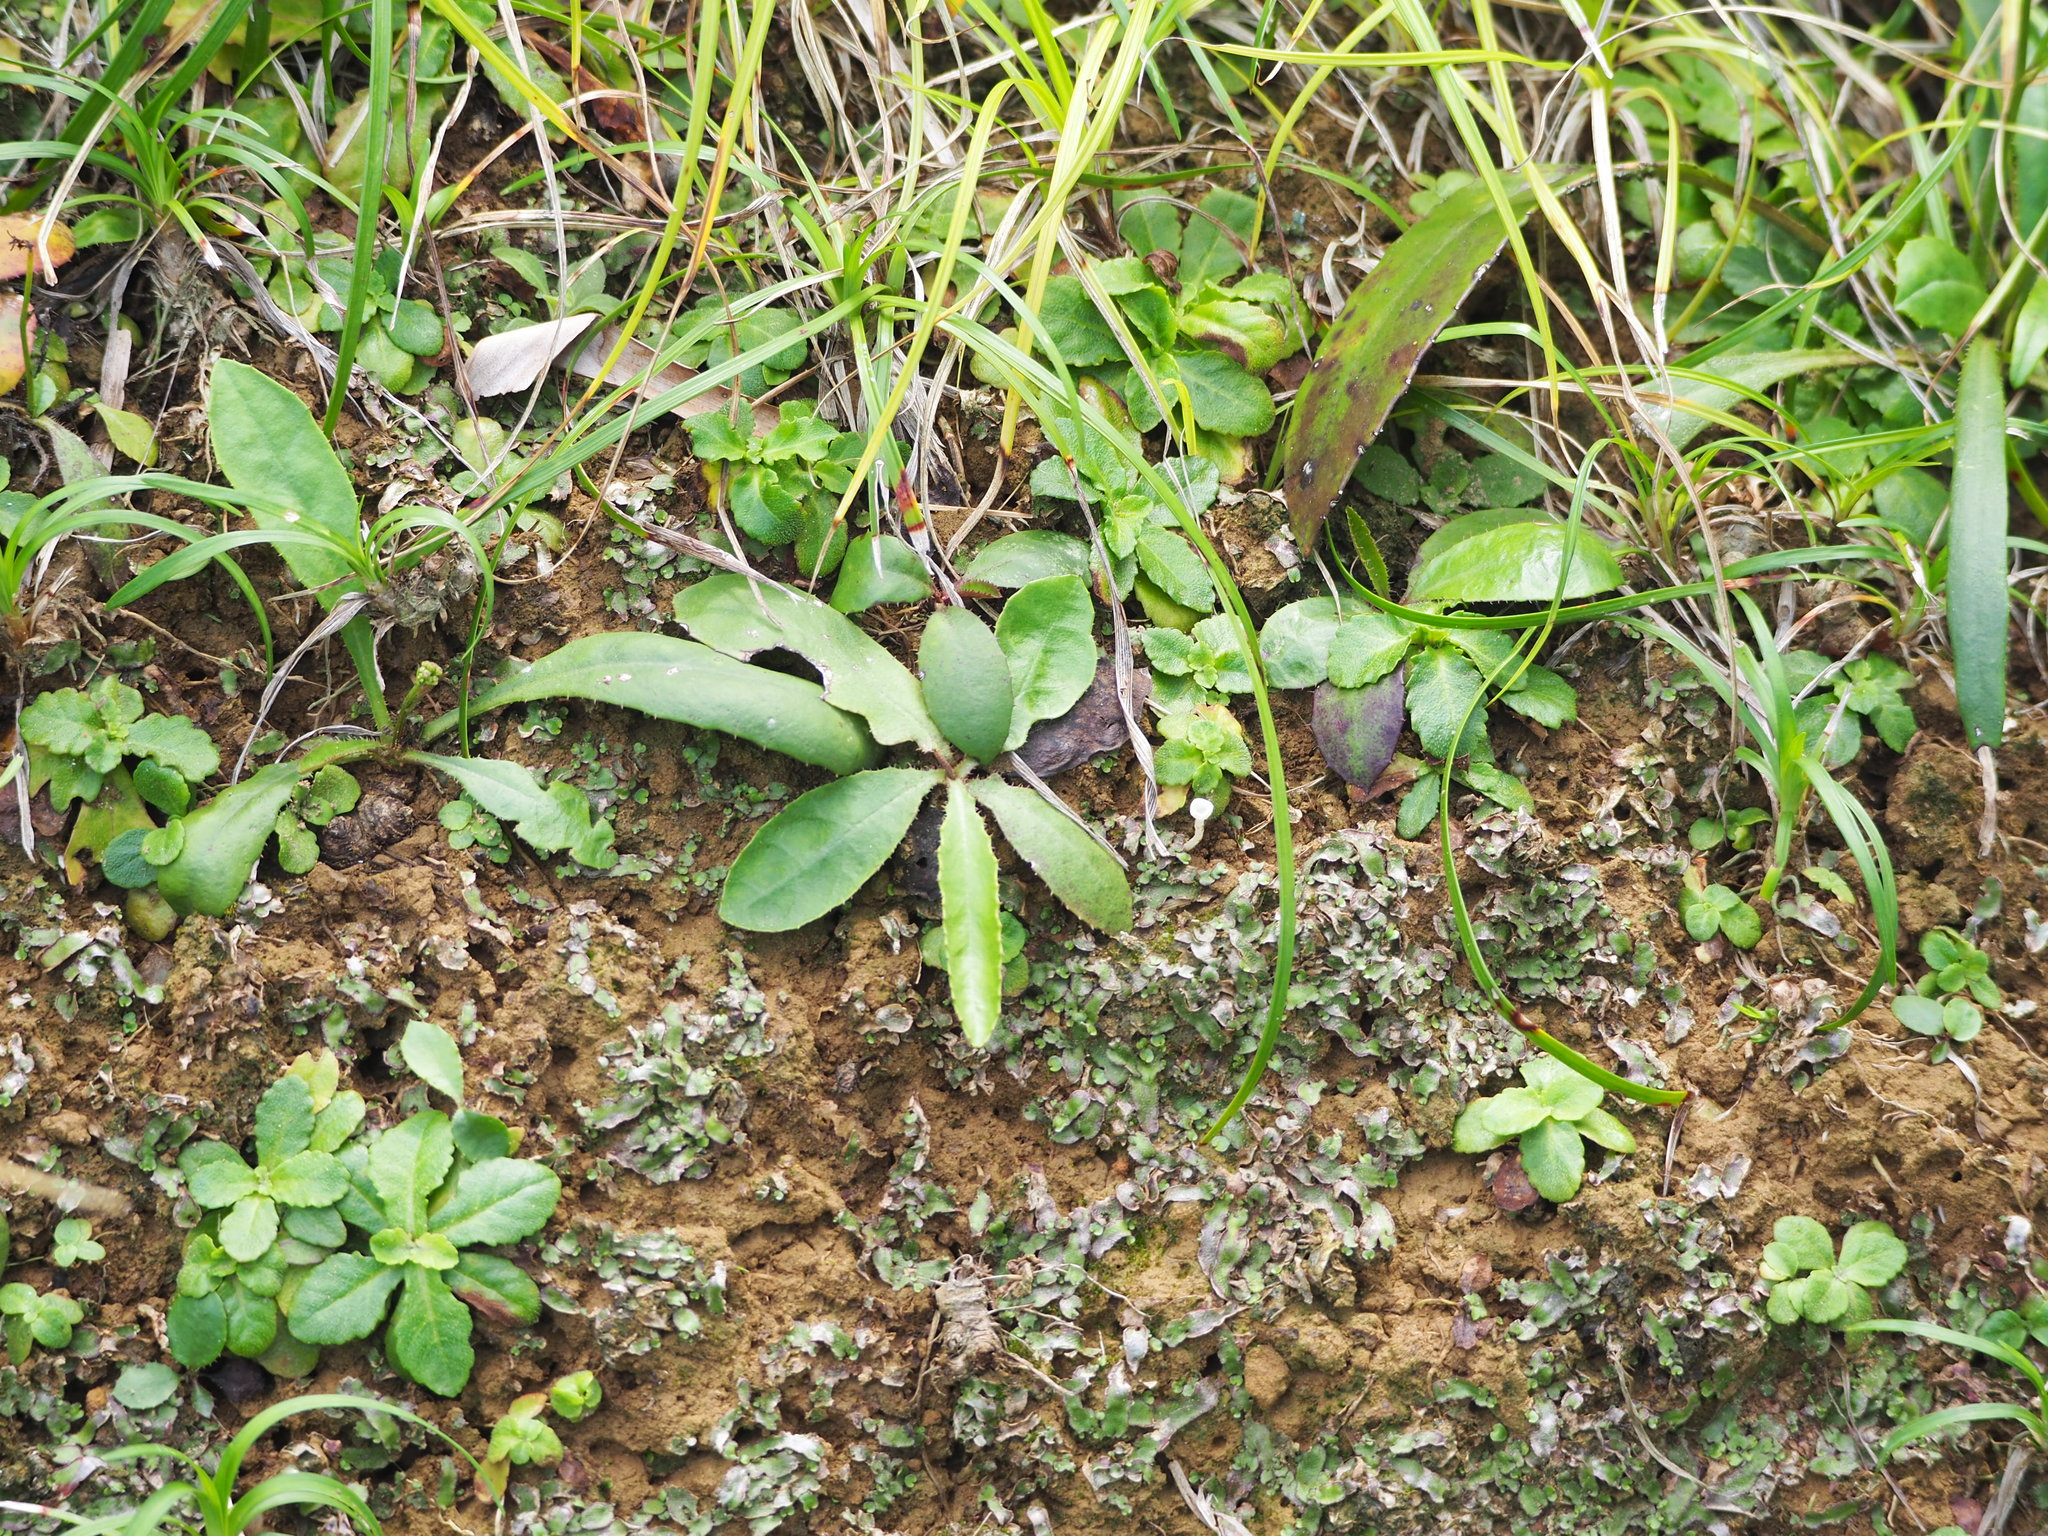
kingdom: Plantae
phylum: Tracheophyta
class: Magnoliopsida
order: Asterales
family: Asteraceae
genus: Ixeridium
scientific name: Ixeridium laevigatum
